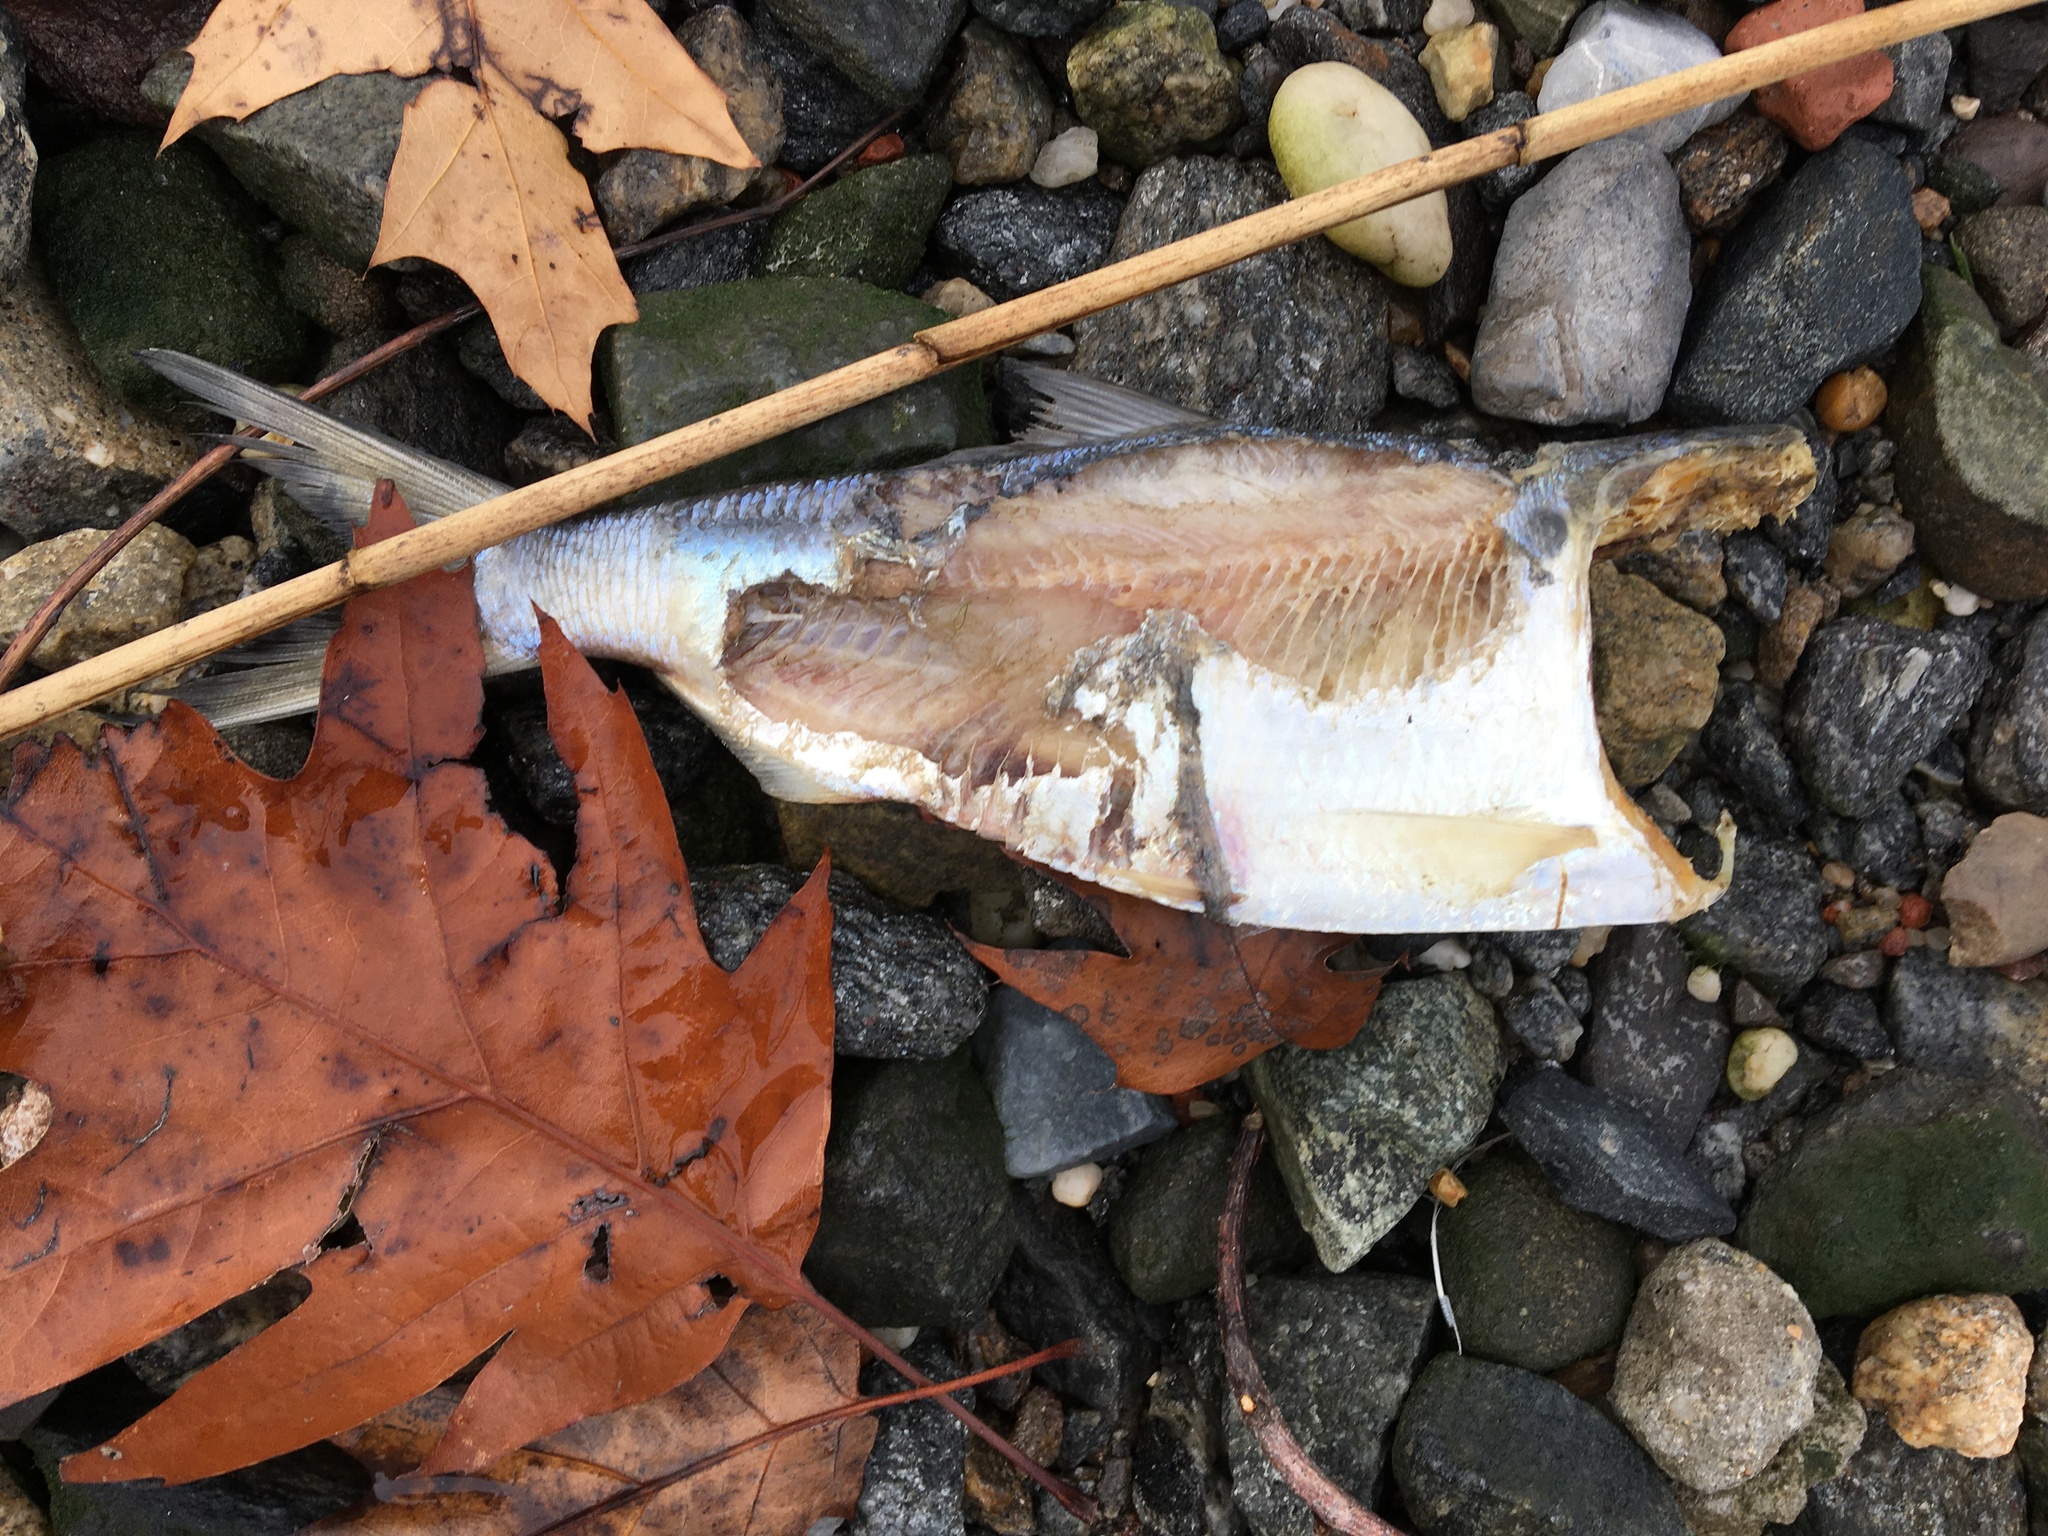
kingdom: Animalia
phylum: Chordata
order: Clupeiformes
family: Clupeidae
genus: Brevoortia
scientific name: Brevoortia tyrannus
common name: Atlantic menhaden
